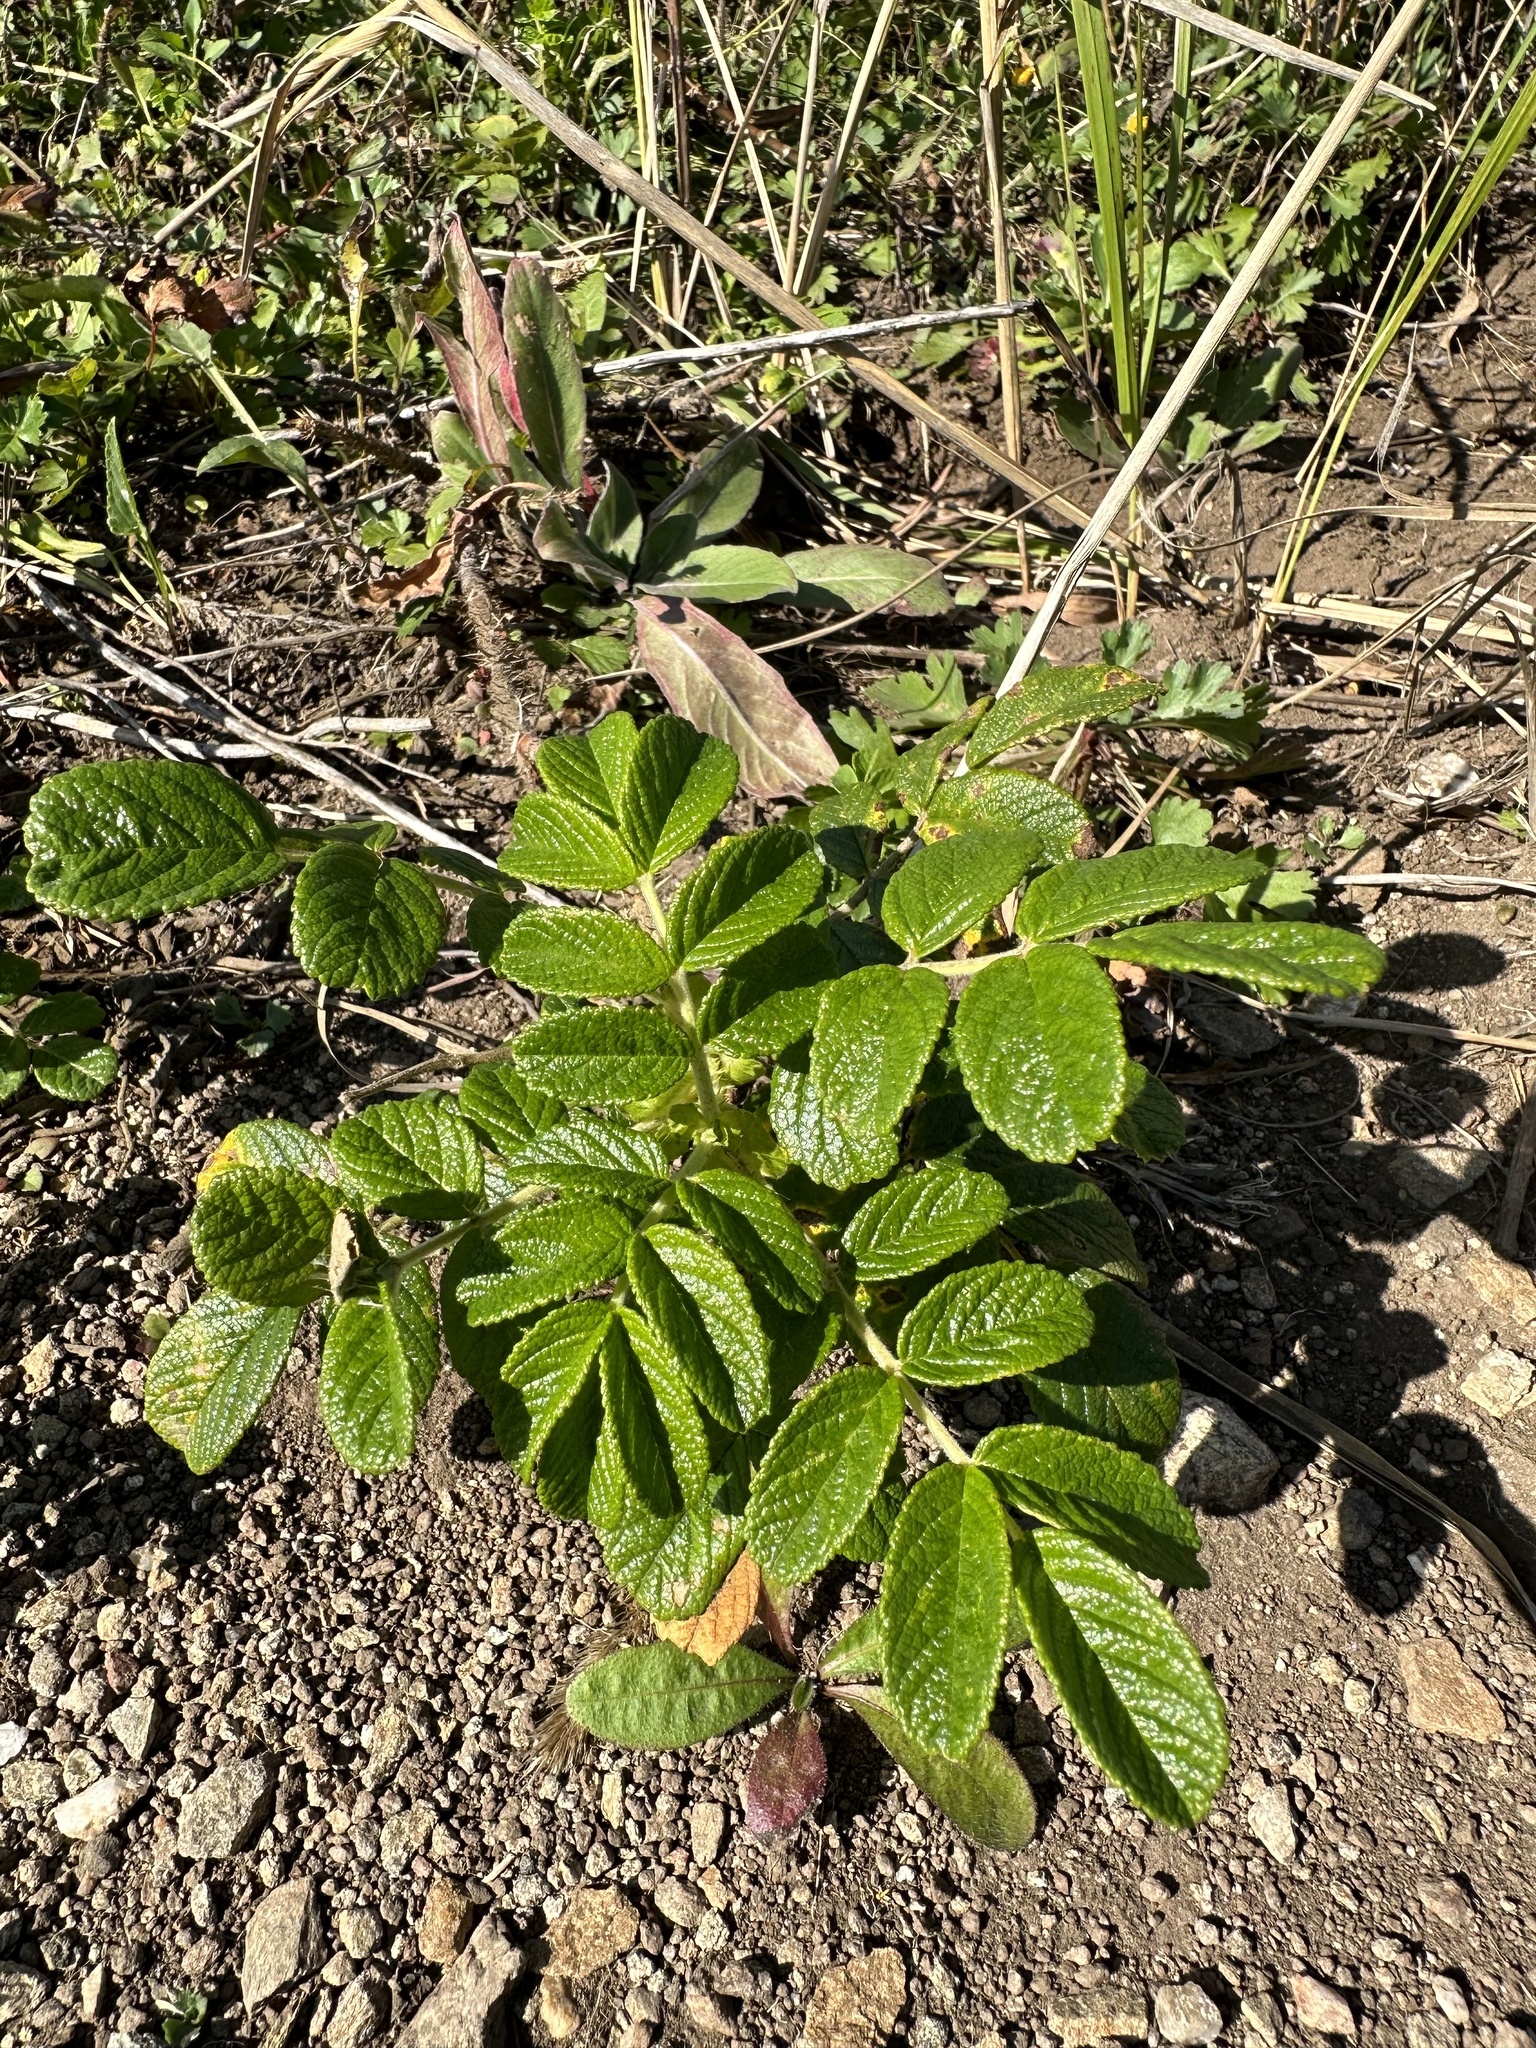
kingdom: Plantae
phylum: Tracheophyta
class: Magnoliopsida
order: Rosales
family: Rosaceae
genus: Rosa
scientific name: Rosa rugosa
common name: Japanese rose
